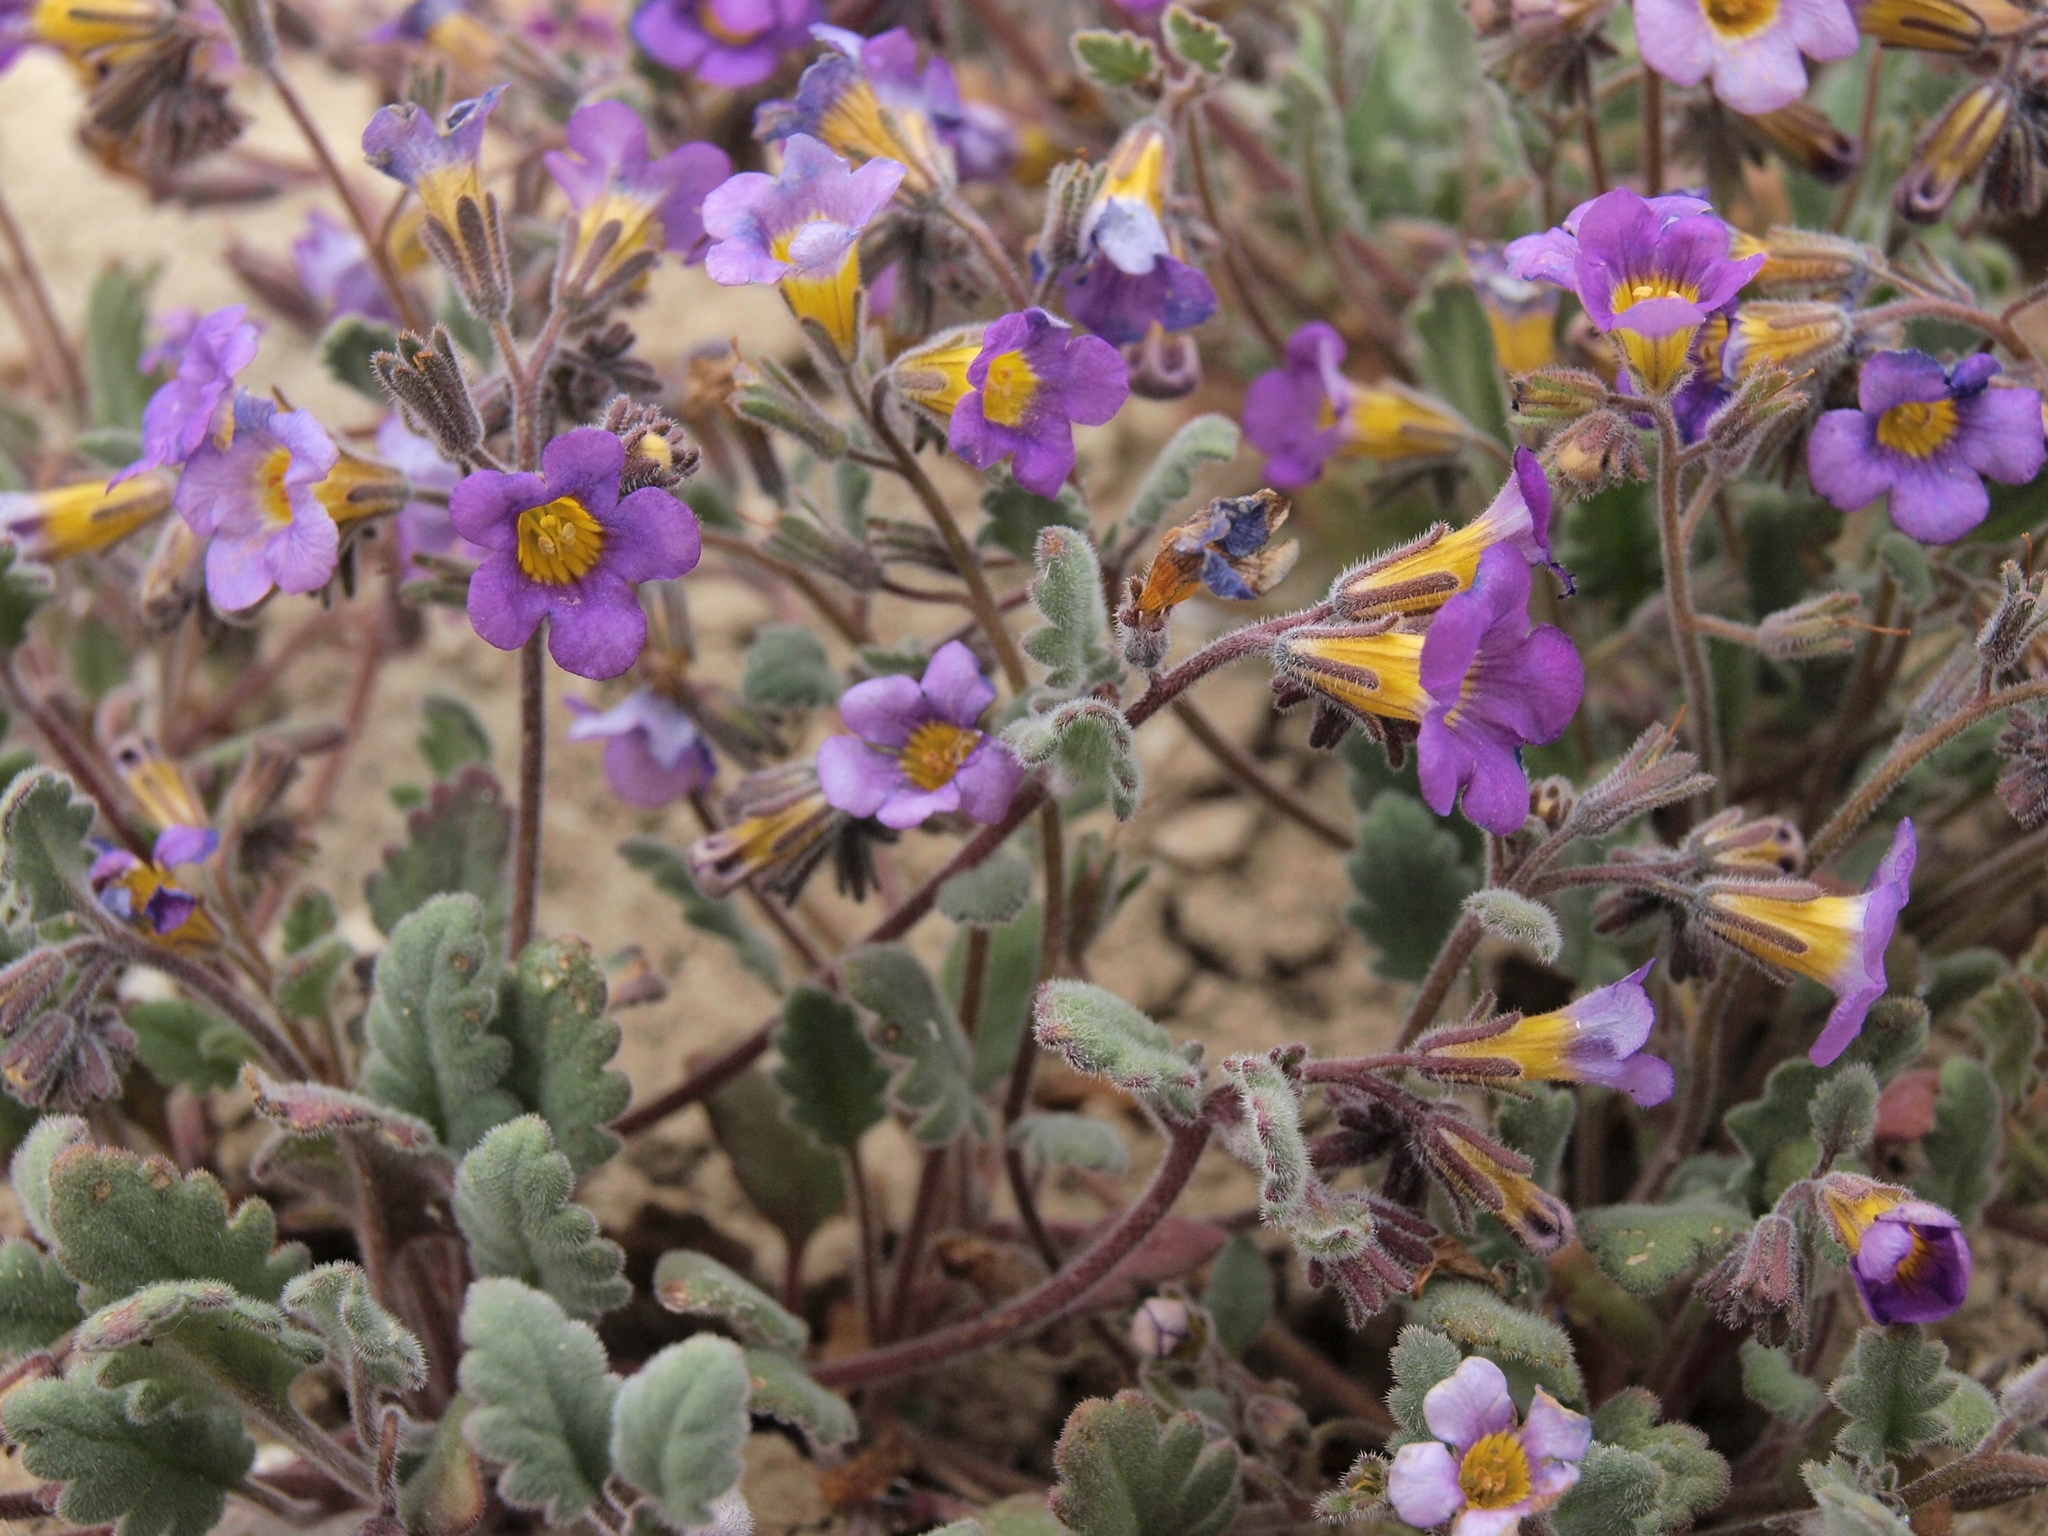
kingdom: Plantae
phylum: Tracheophyta
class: Magnoliopsida
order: Boraginales
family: Hydrophyllaceae
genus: Phacelia
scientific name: Phacelia gymnoclada
